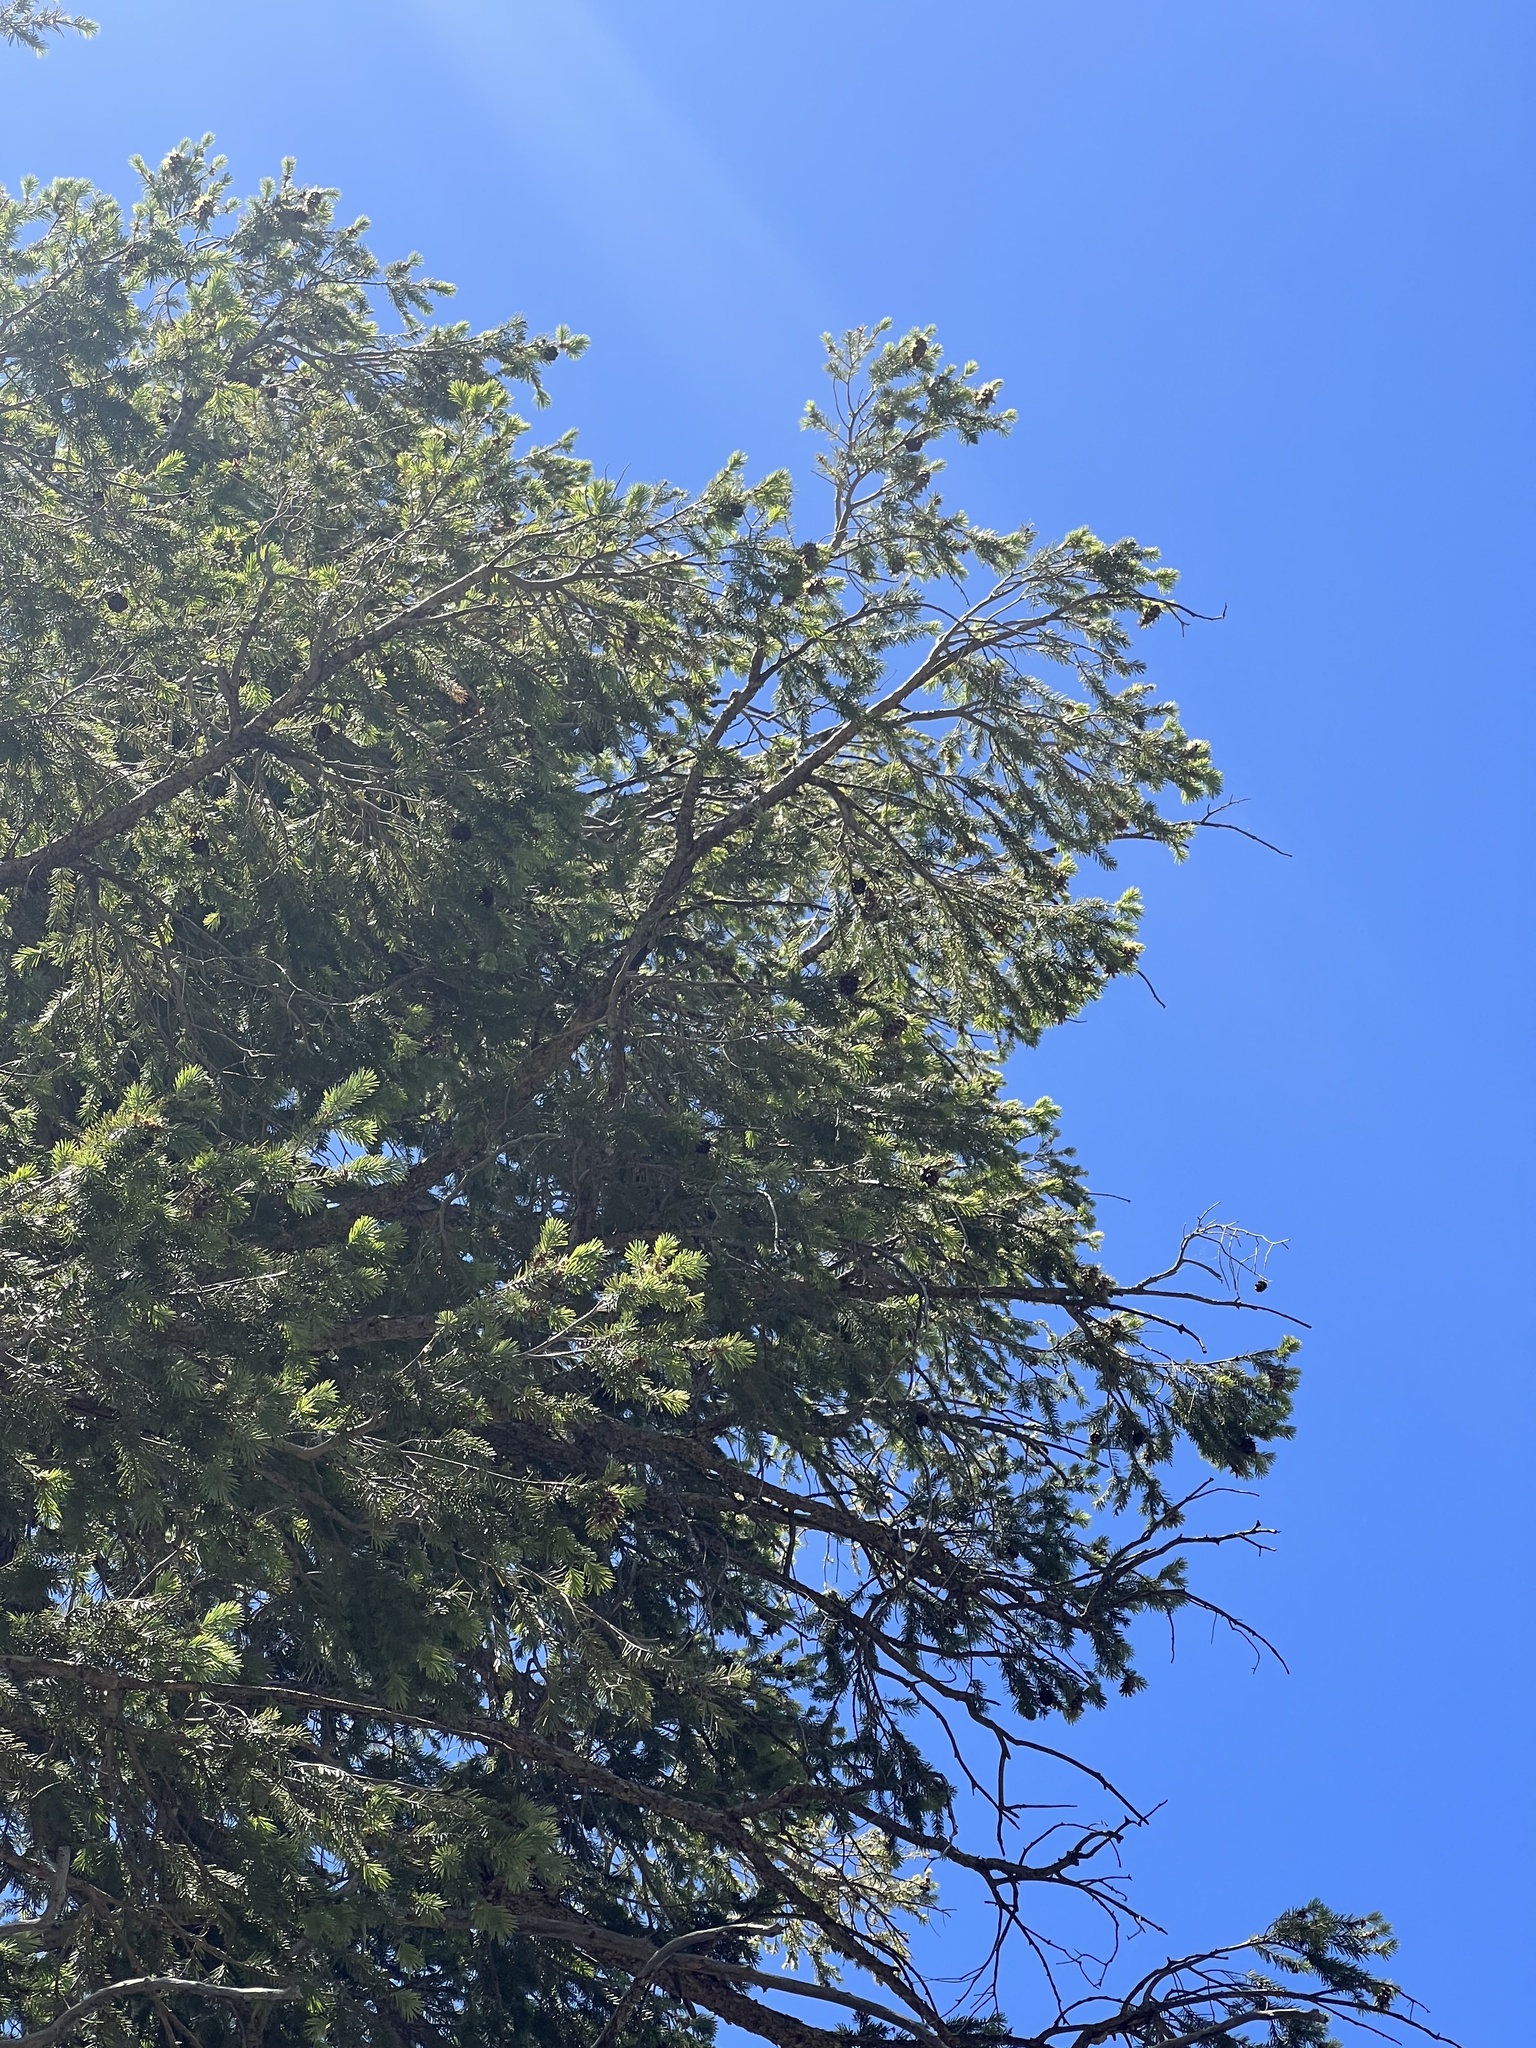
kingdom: Plantae
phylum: Tracheophyta
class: Pinopsida
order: Pinales
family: Pinaceae
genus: Pseudotsuga
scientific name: Pseudotsuga menziesii
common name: Douglas fir
